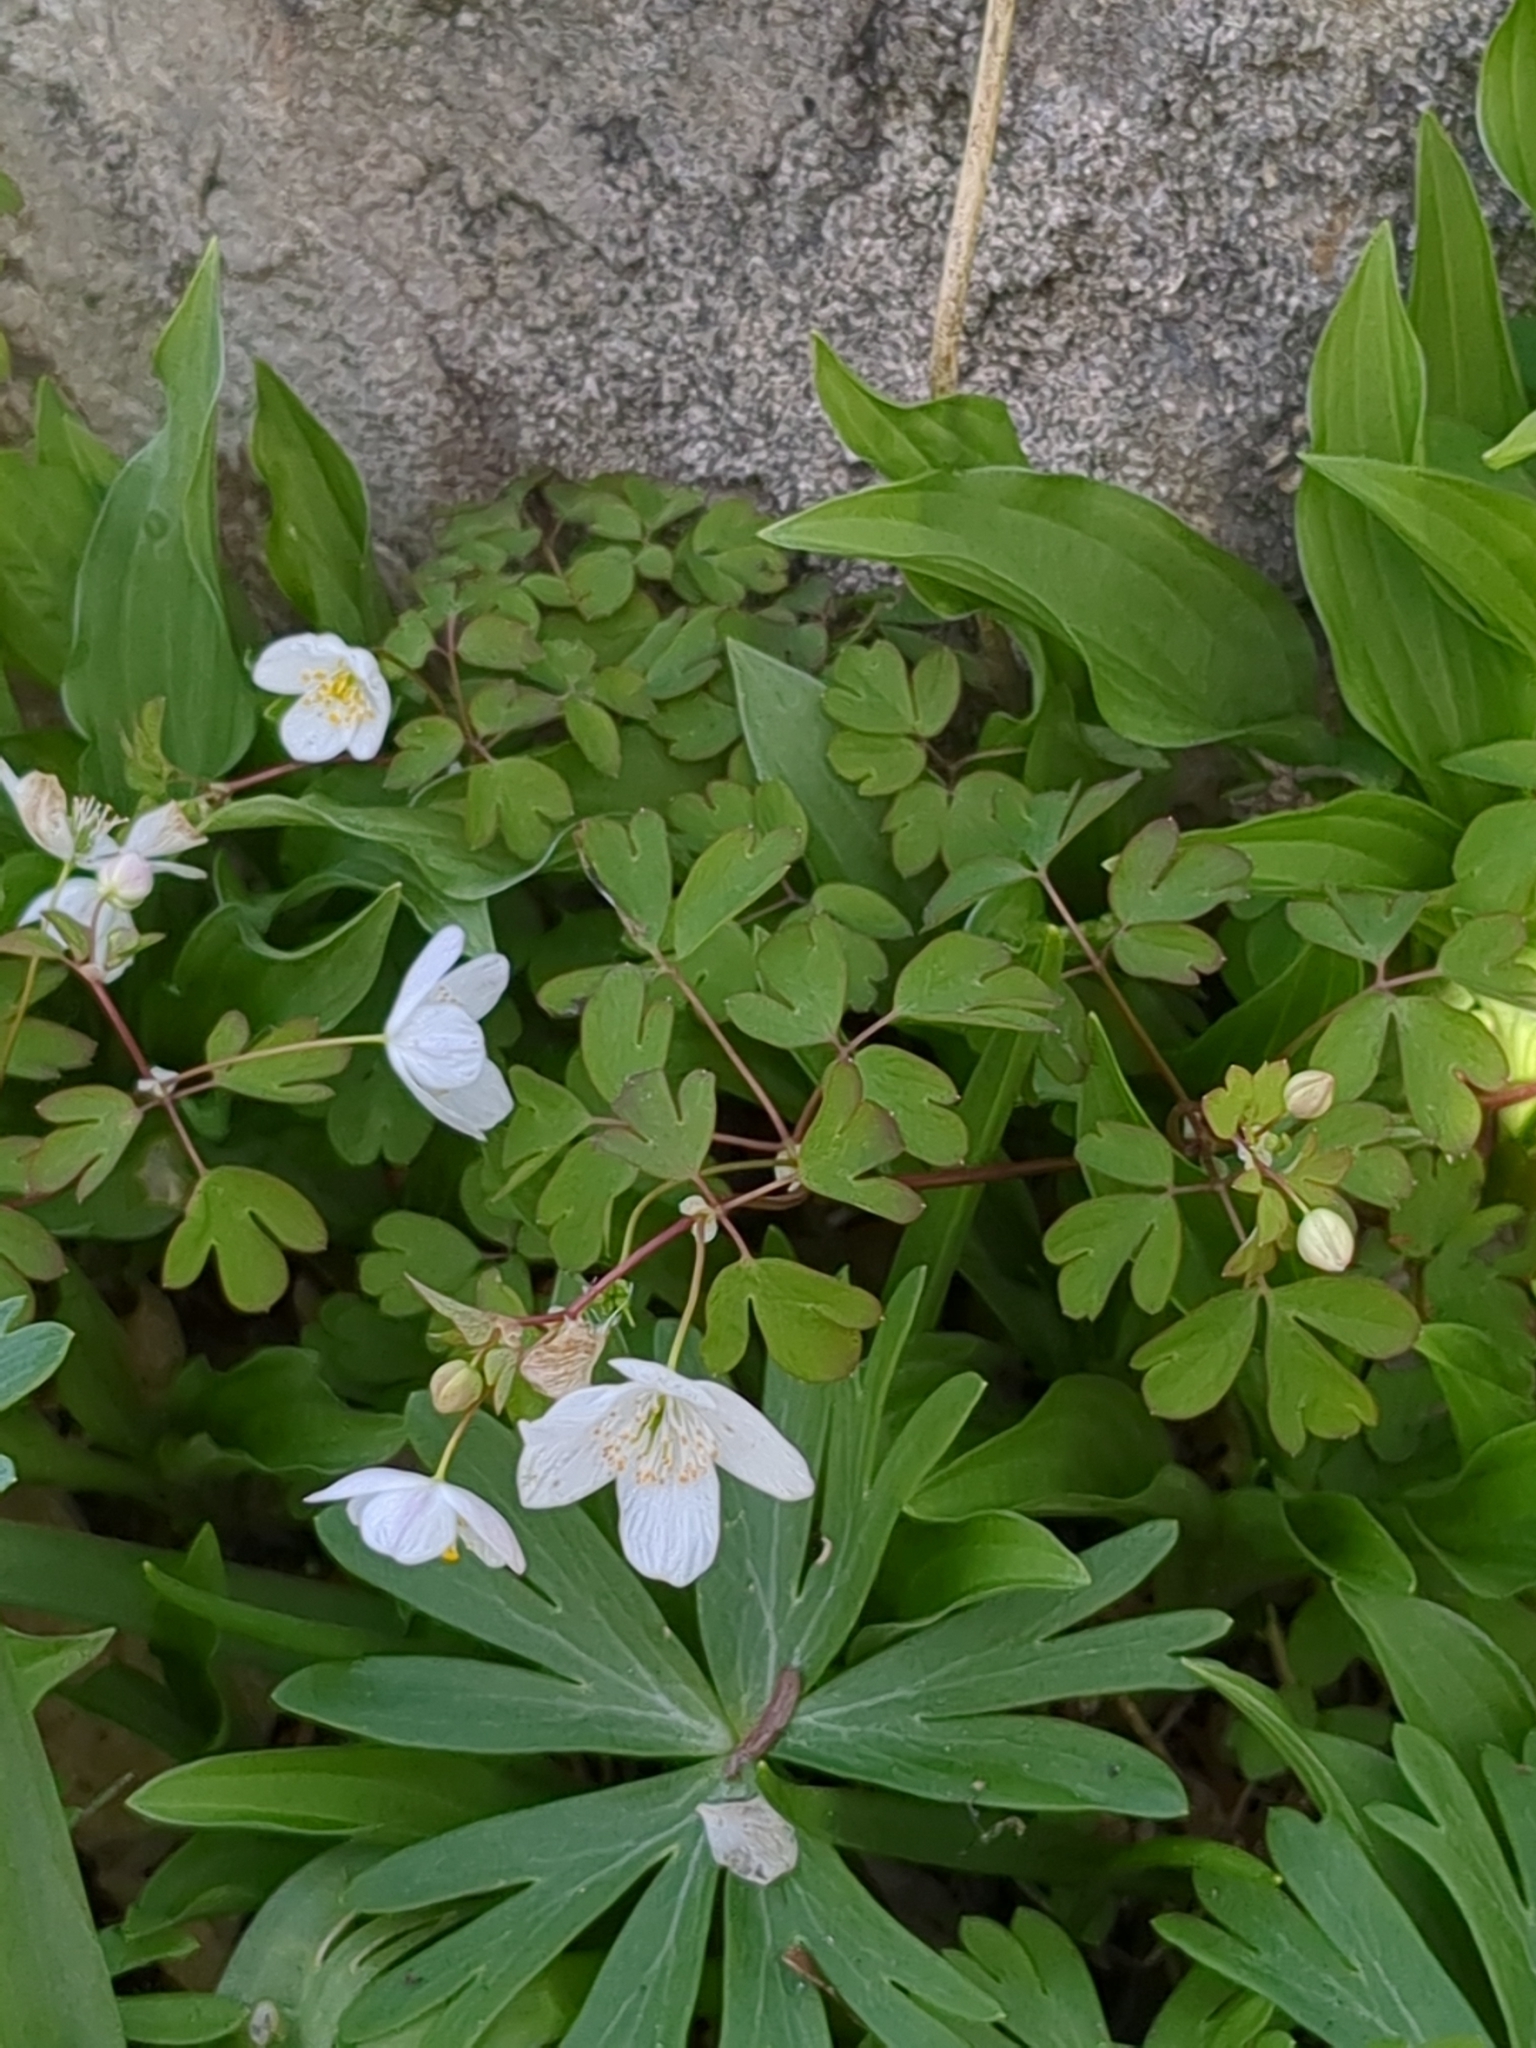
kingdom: Plantae
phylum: Tracheophyta
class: Magnoliopsida
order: Ranunculales
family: Ranunculaceae
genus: Enemion
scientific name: Enemion biternatum
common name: Eastern false rue-anemone
